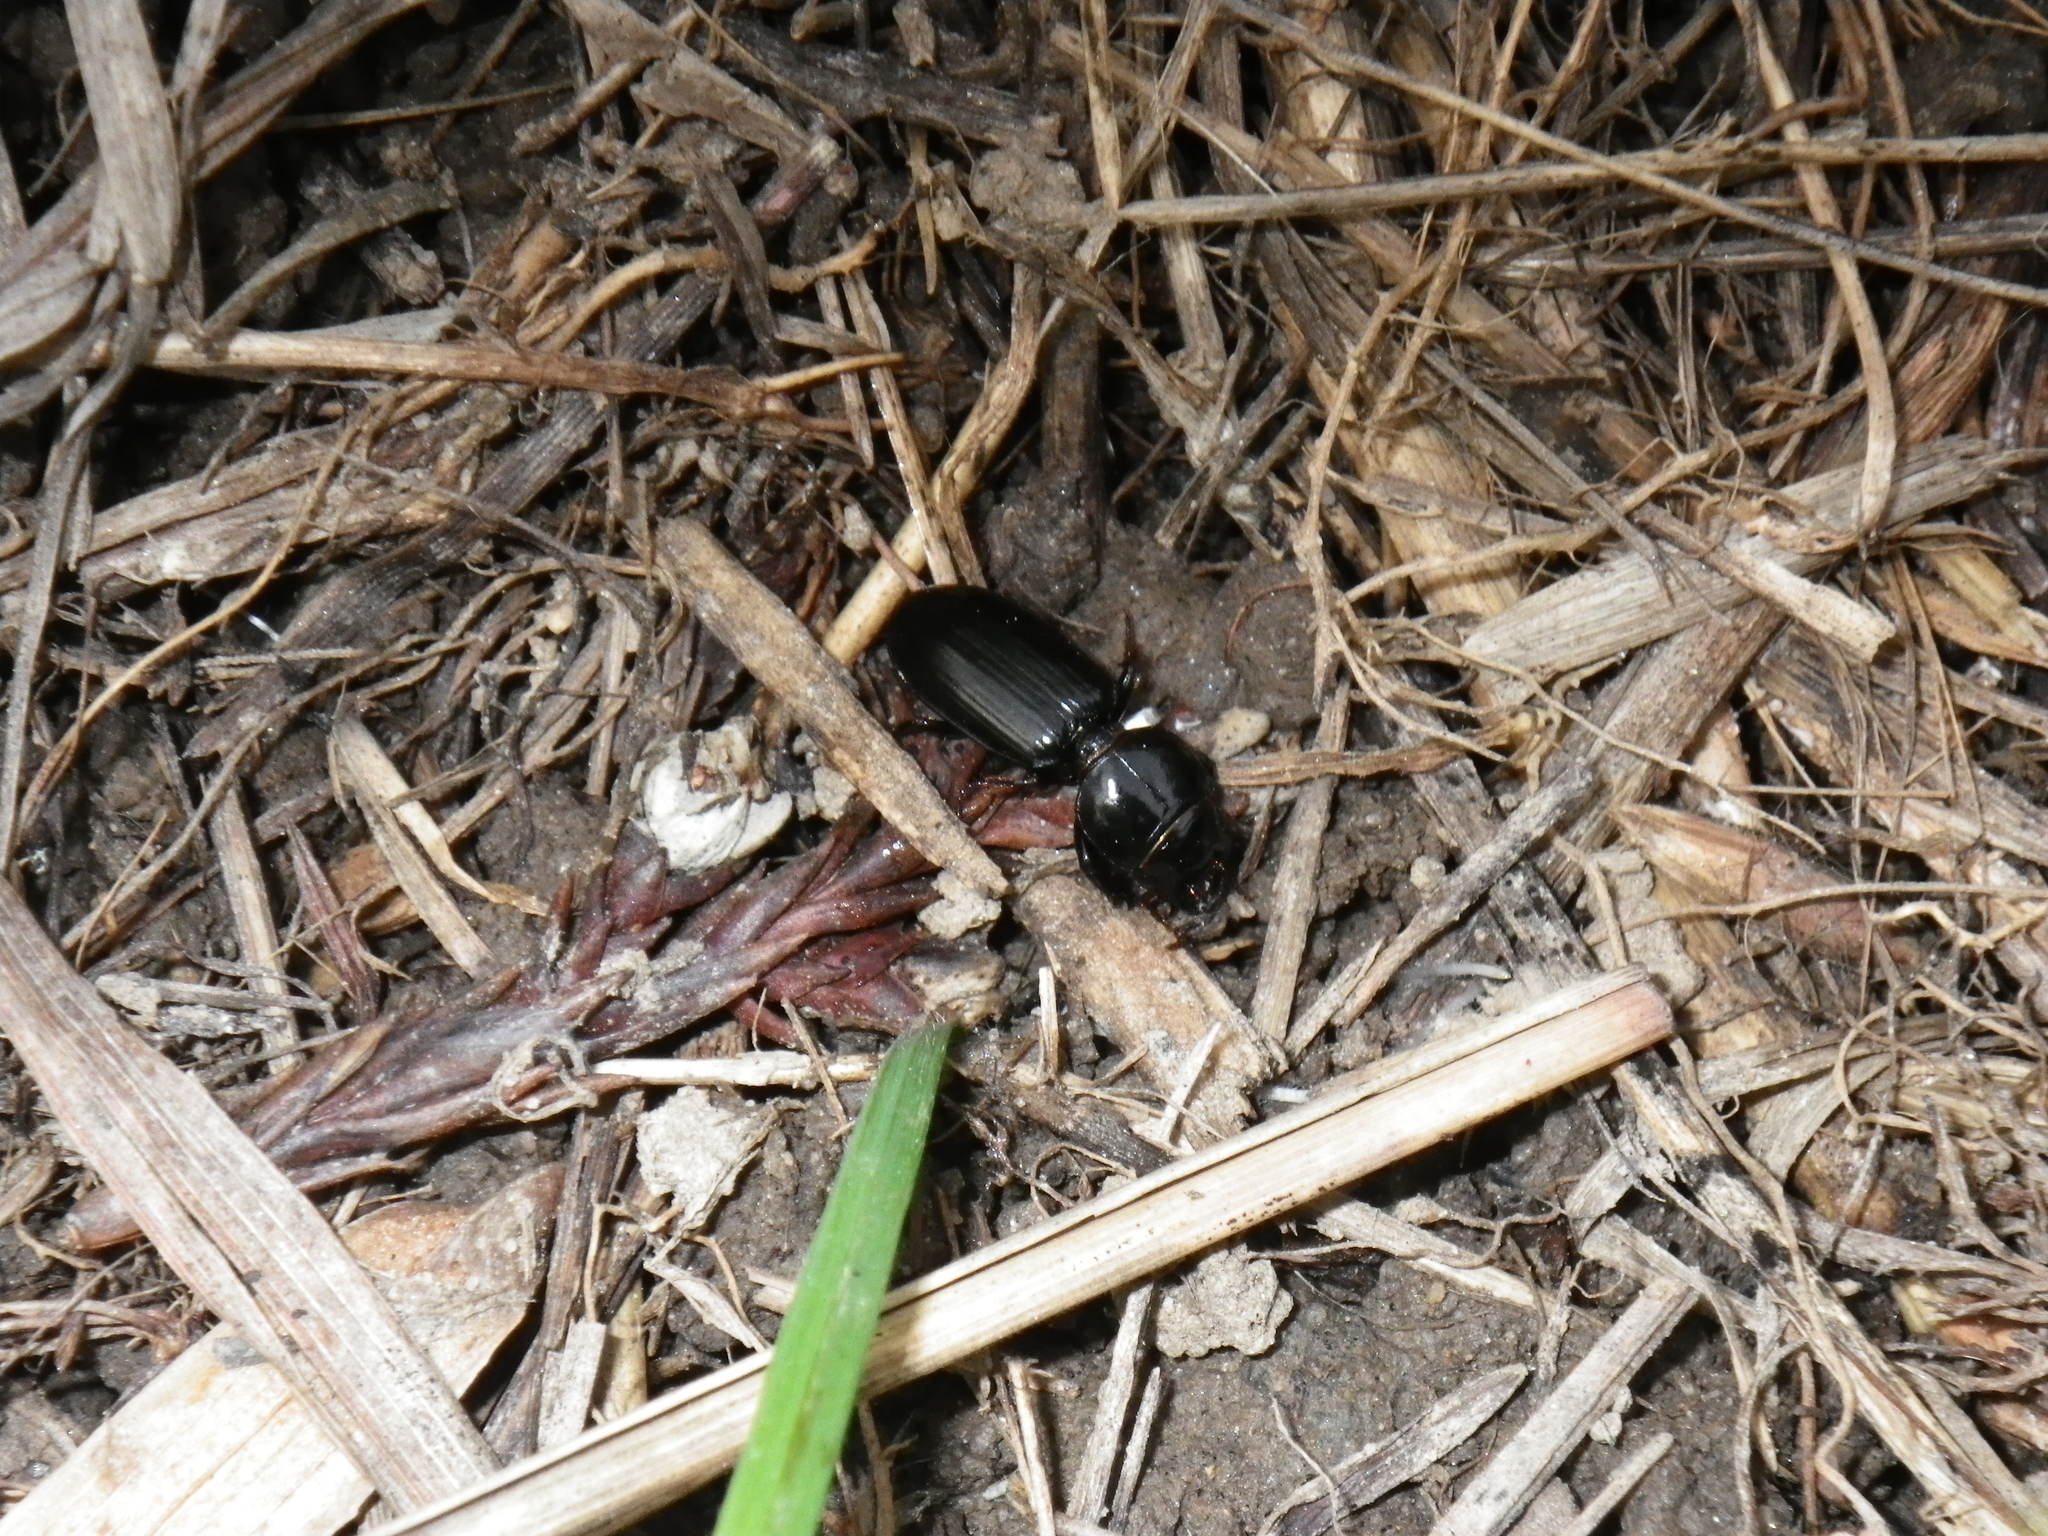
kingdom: Animalia
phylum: Arthropoda
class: Insecta
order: Coleoptera
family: Carabidae
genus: Scarites
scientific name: Scarites subterraneus
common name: Big-headed ground beetle
